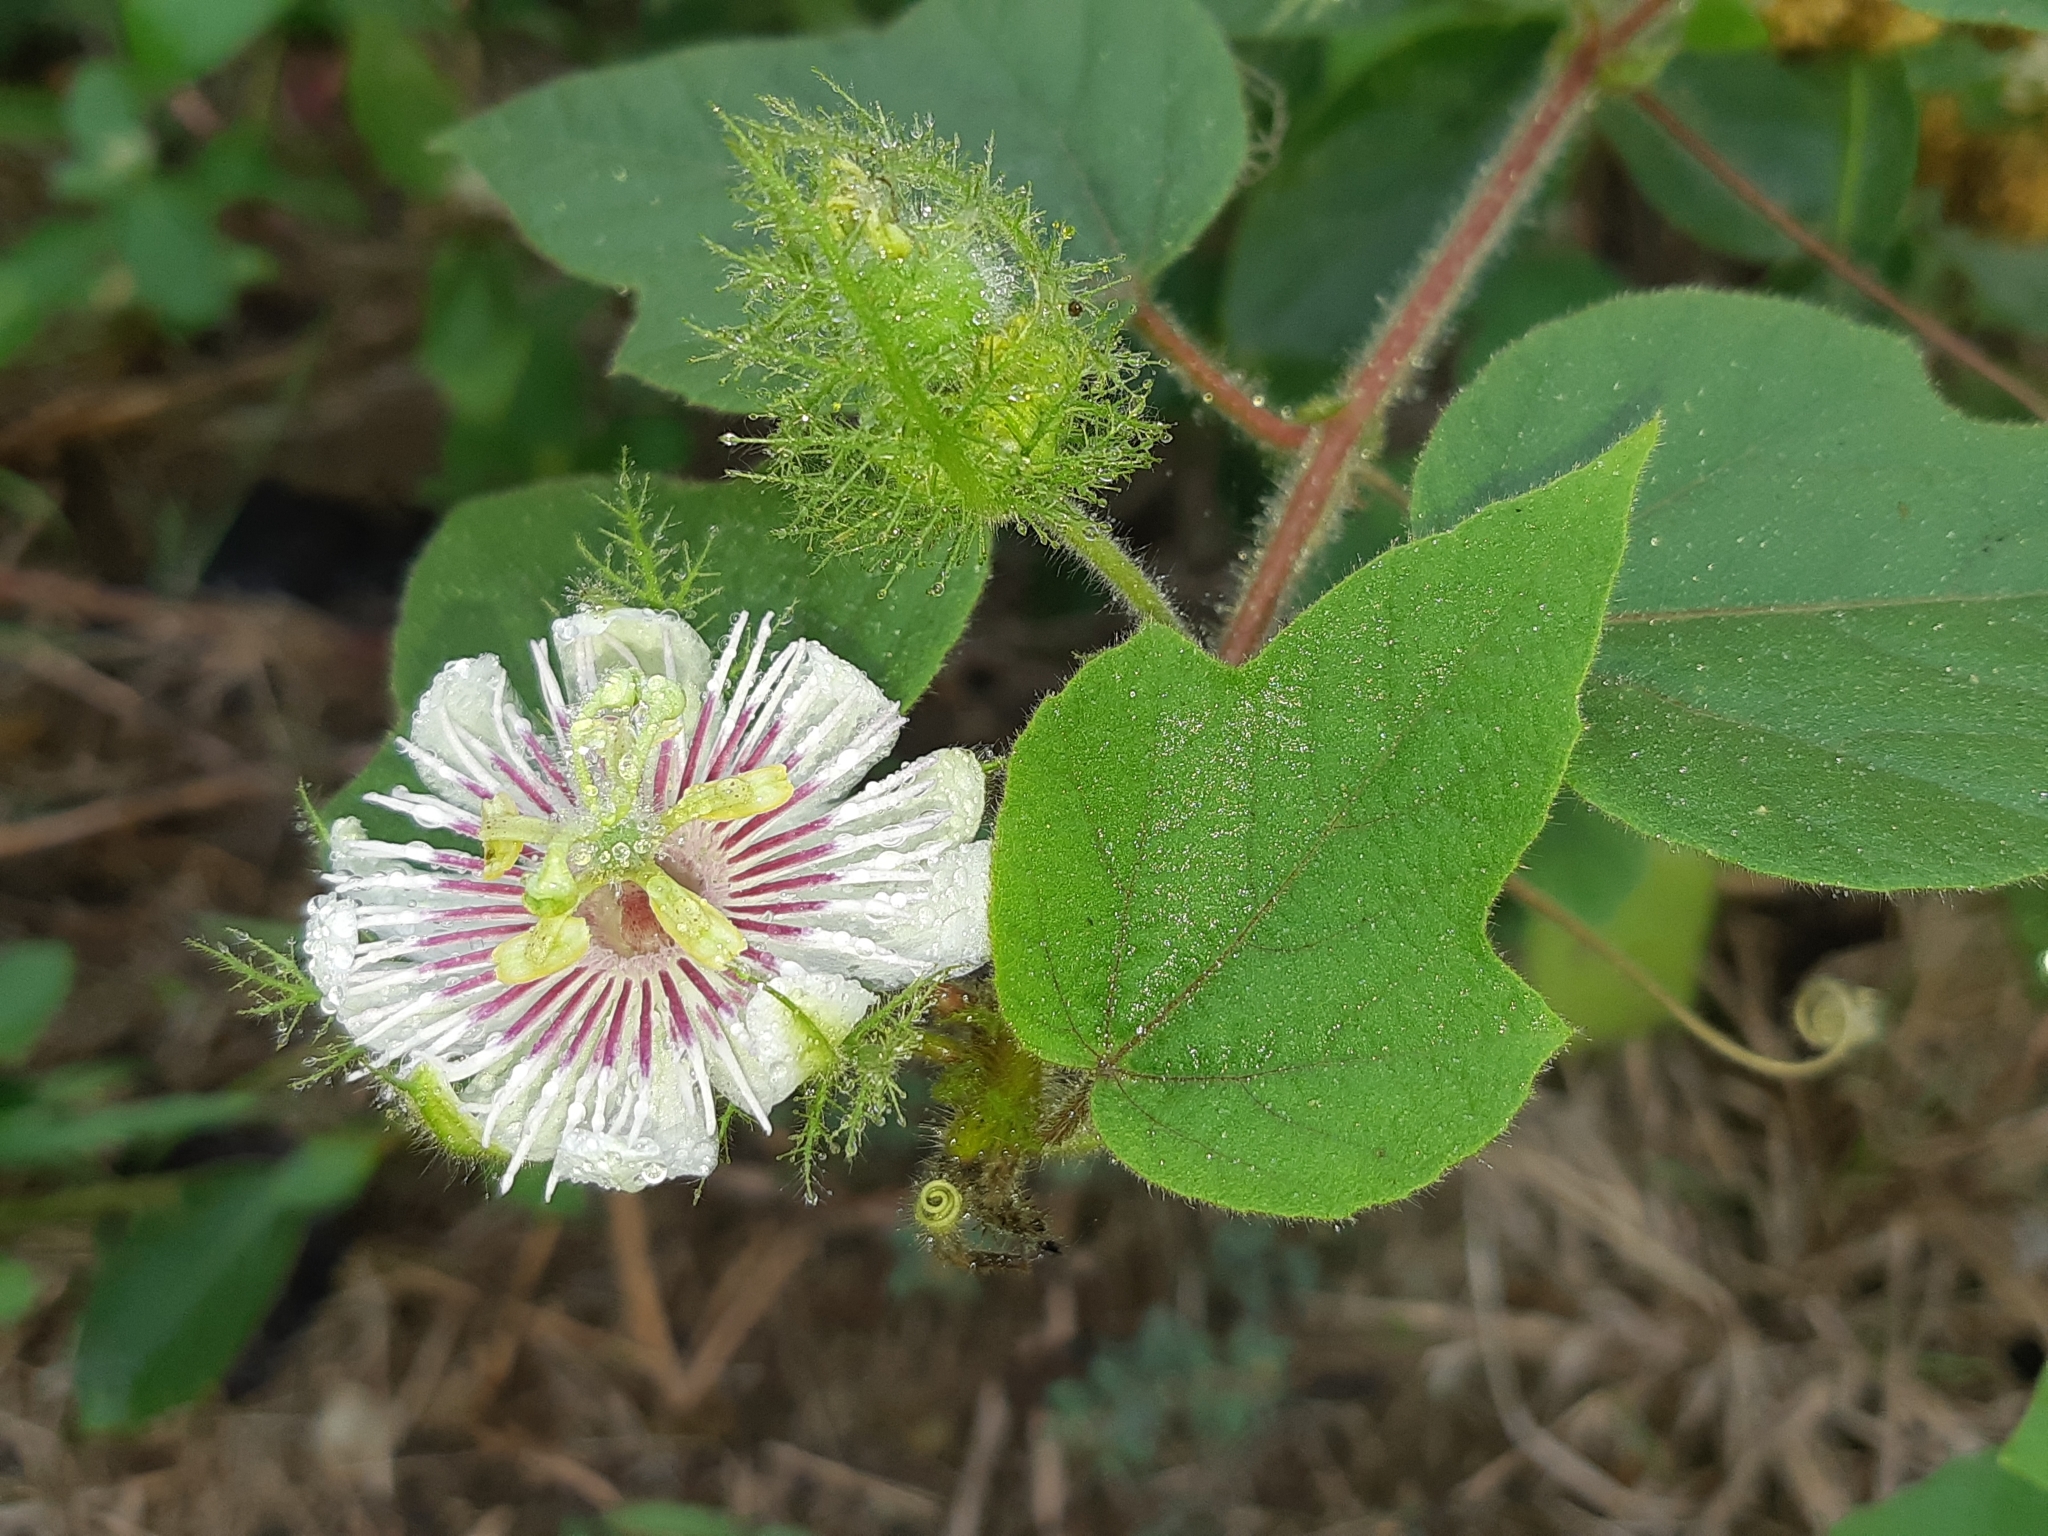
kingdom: Plantae
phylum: Tracheophyta
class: Magnoliopsida
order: Malpighiales
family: Passifloraceae
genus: Passiflora
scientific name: Passiflora foetida
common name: Fetid passionflower
